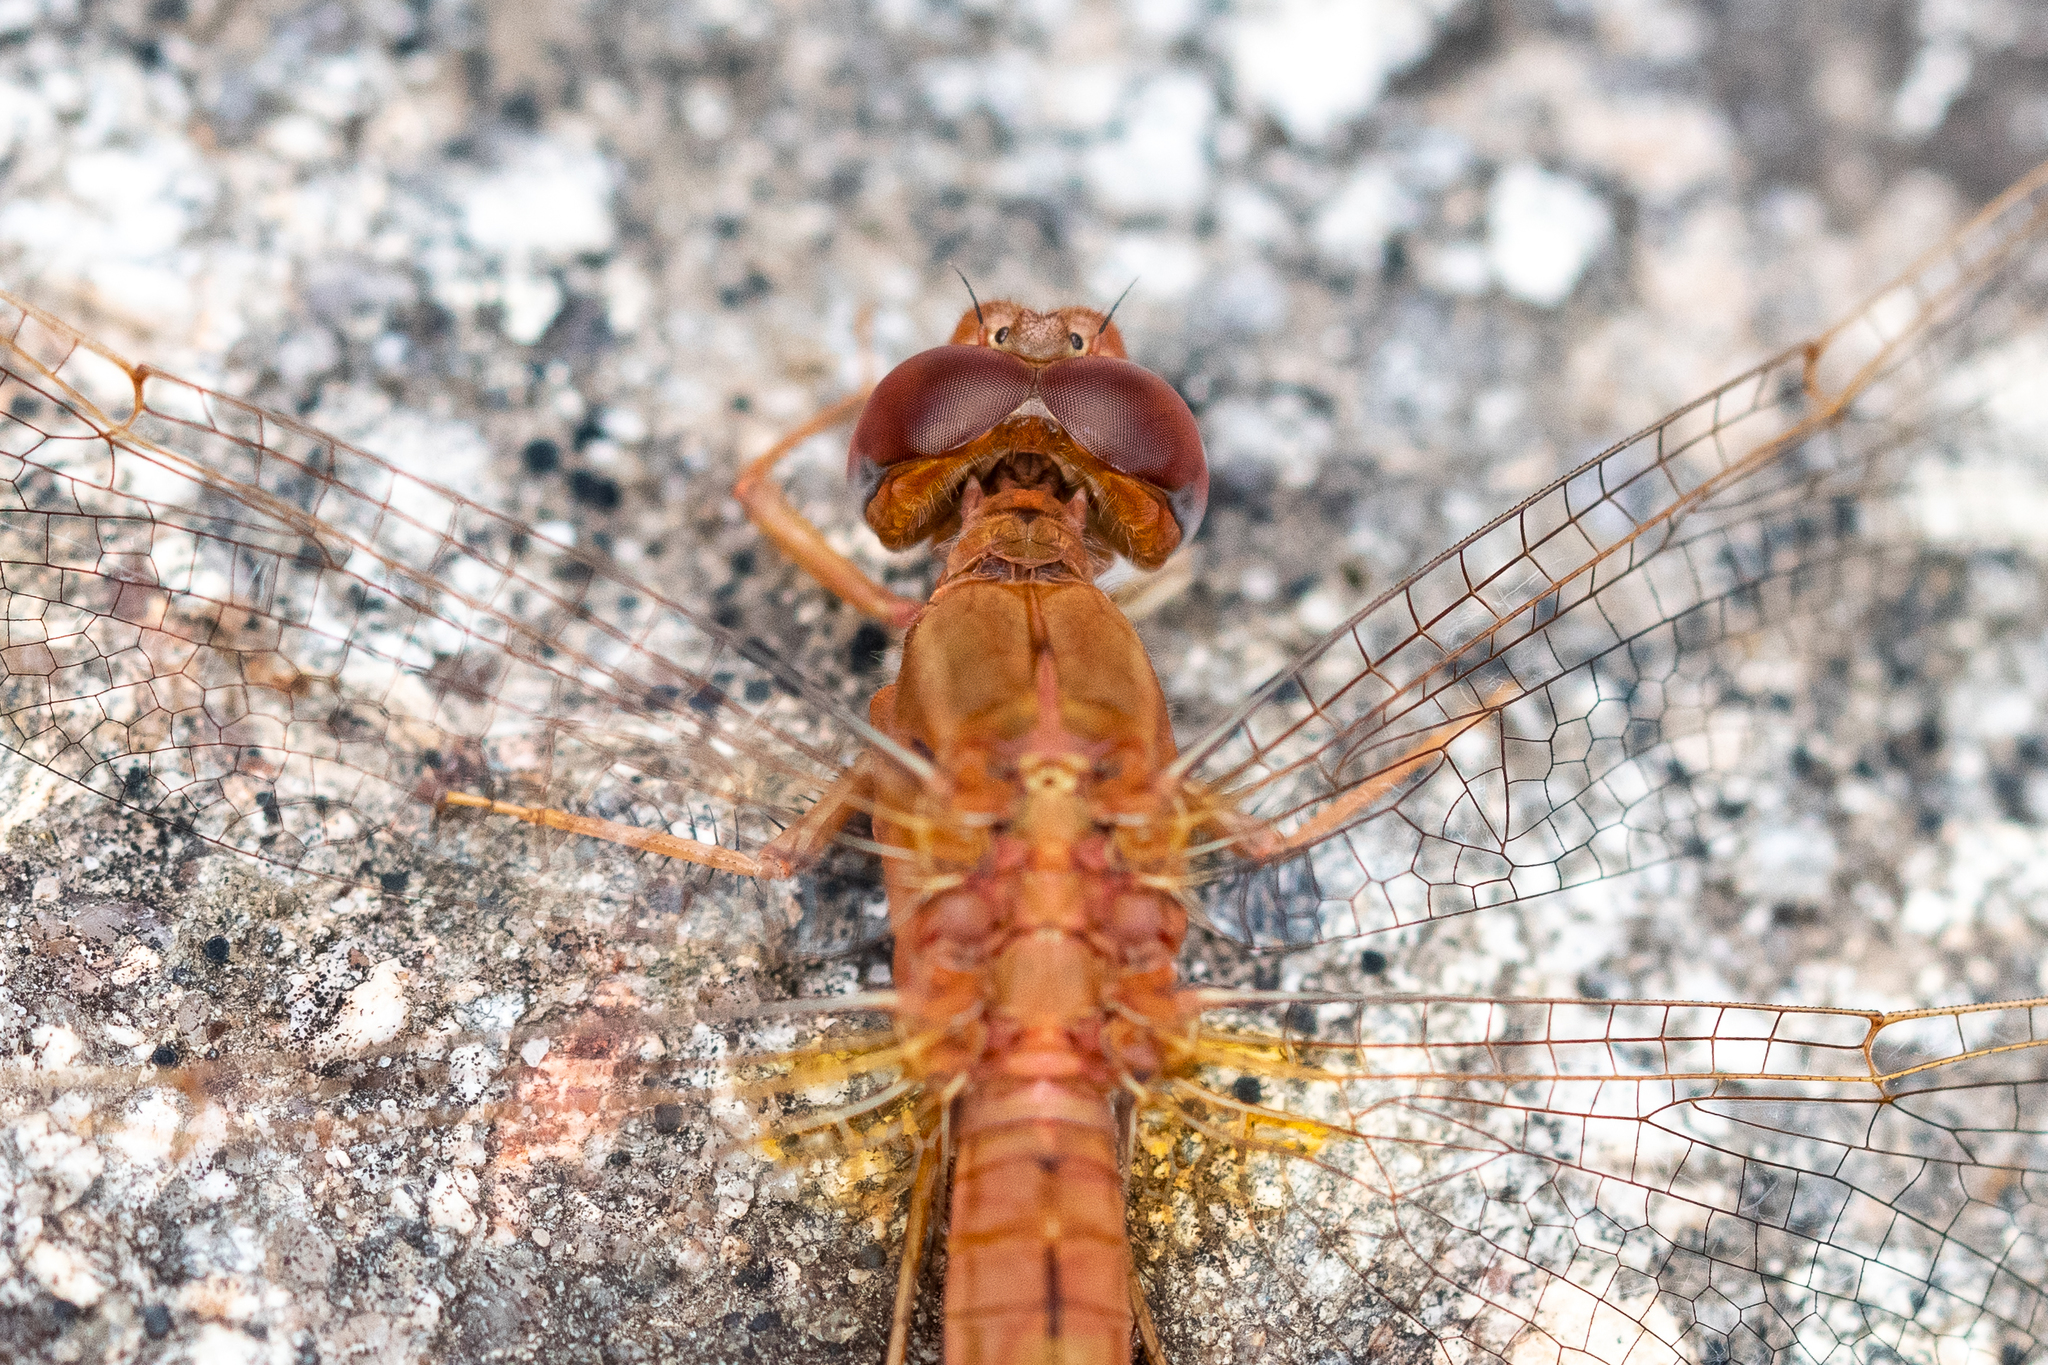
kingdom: Animalia
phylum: Arthropoda
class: Insecta
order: Odonata
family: Libellulidae
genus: Crocothemis
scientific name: Crocothemis sanguinolenta
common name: Little scarlet
